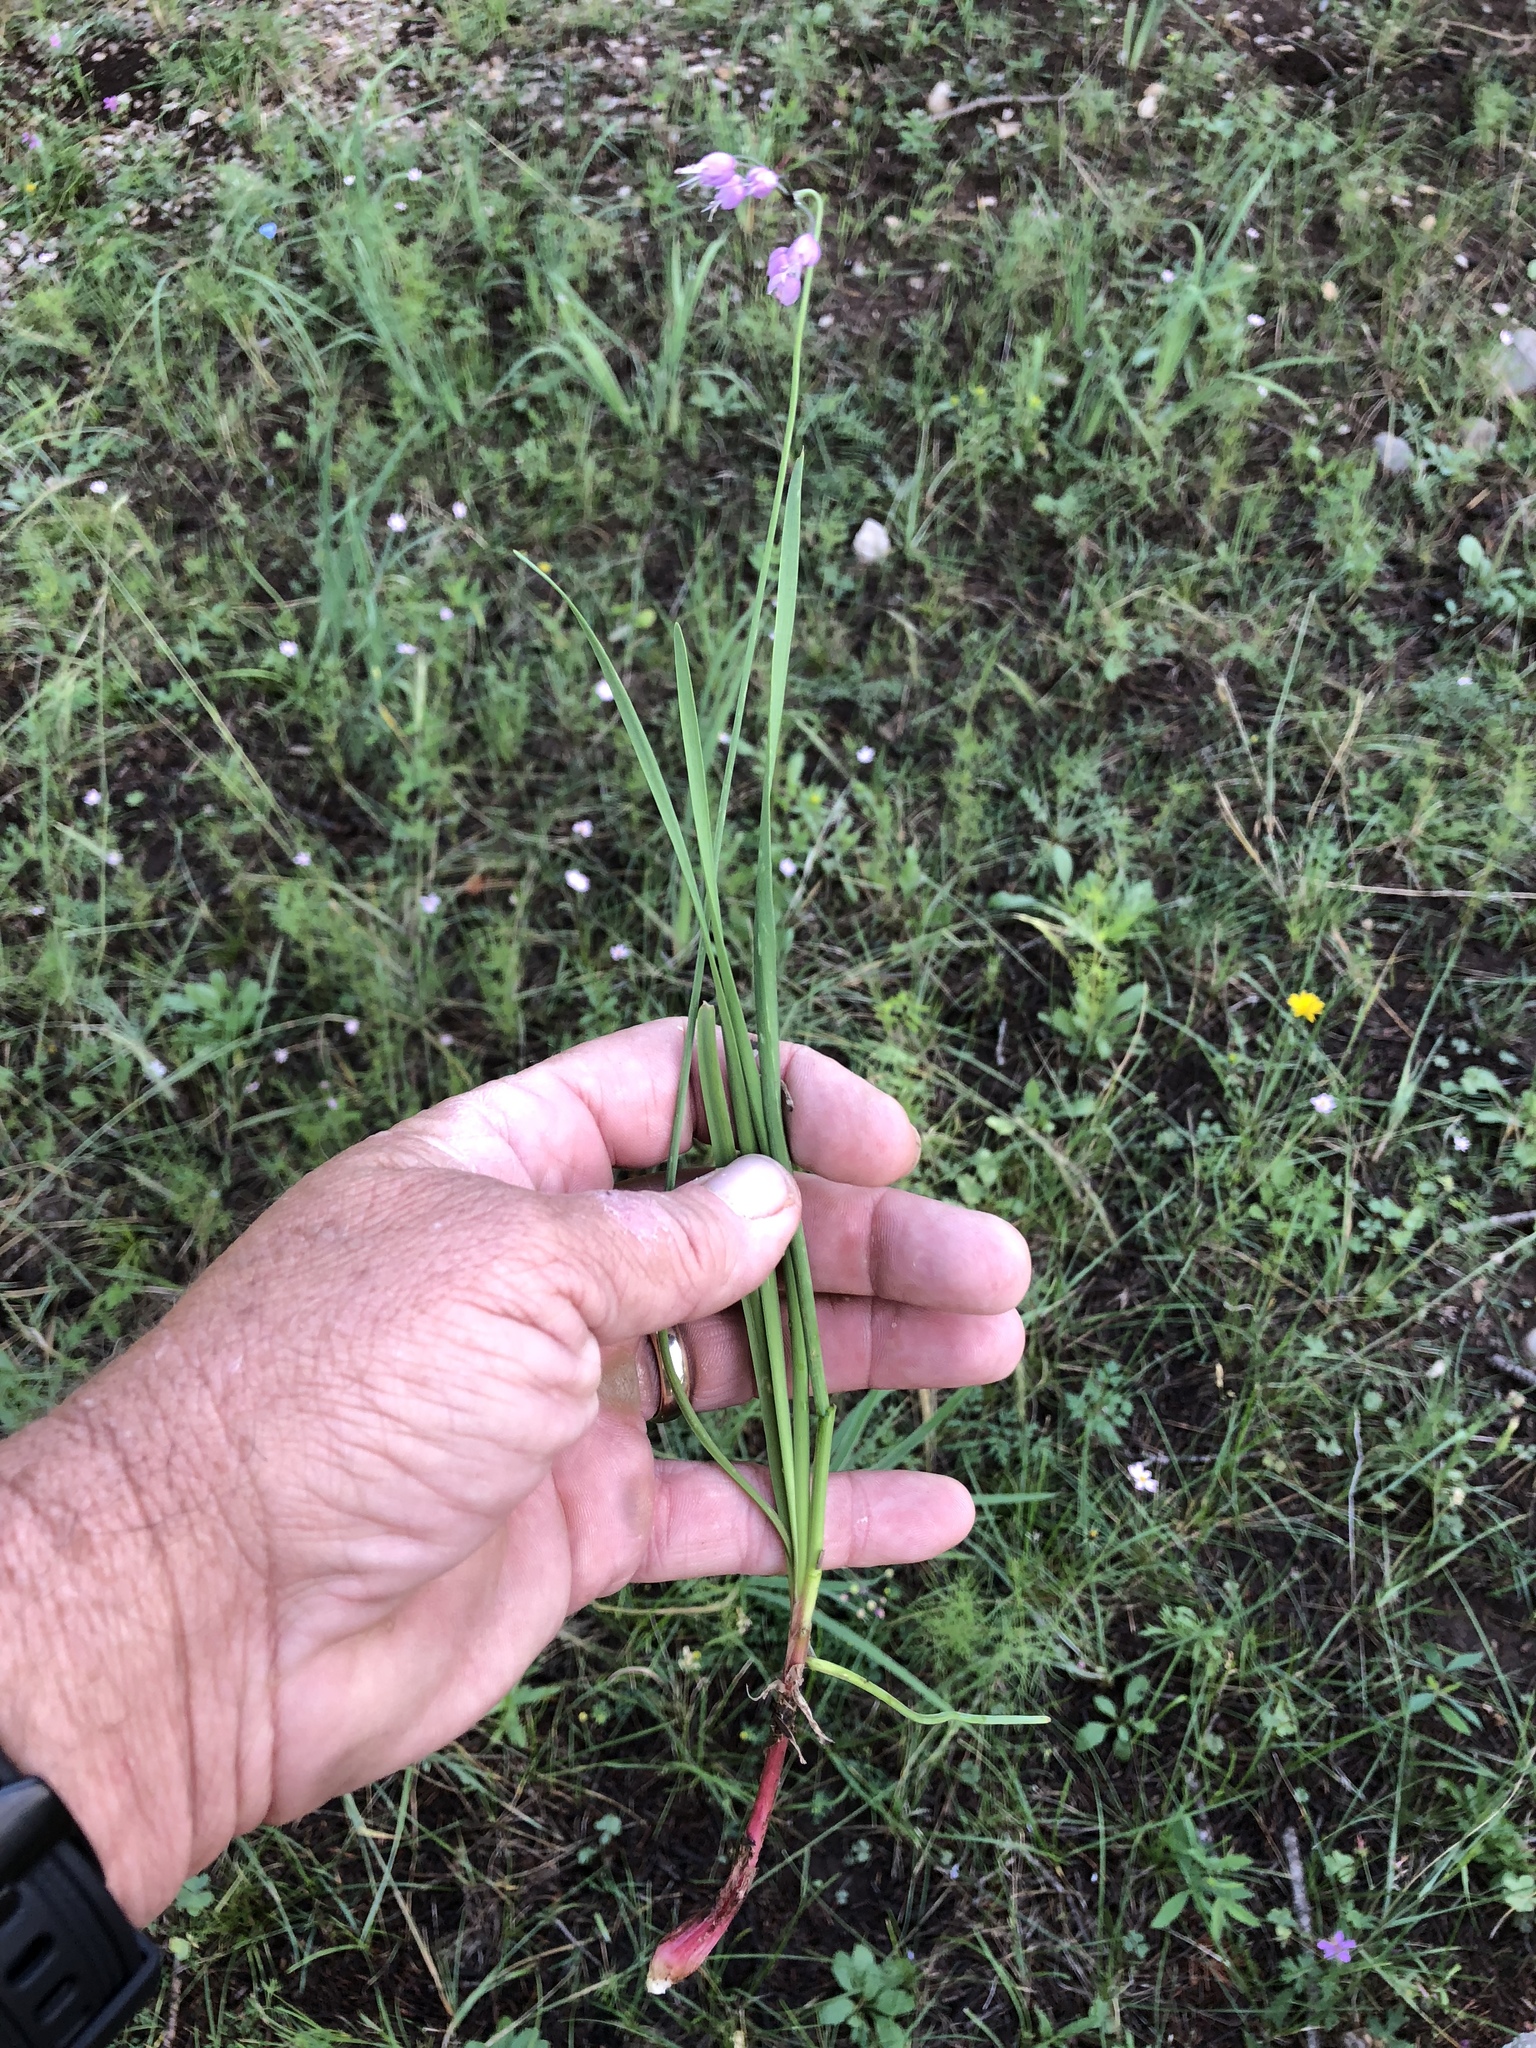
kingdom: Plantae
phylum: Tracheophyta
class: Liliopsida
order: Asparagales
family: Amaryllidaceae
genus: Allium
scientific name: Allium cernuum
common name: Nodding onion
